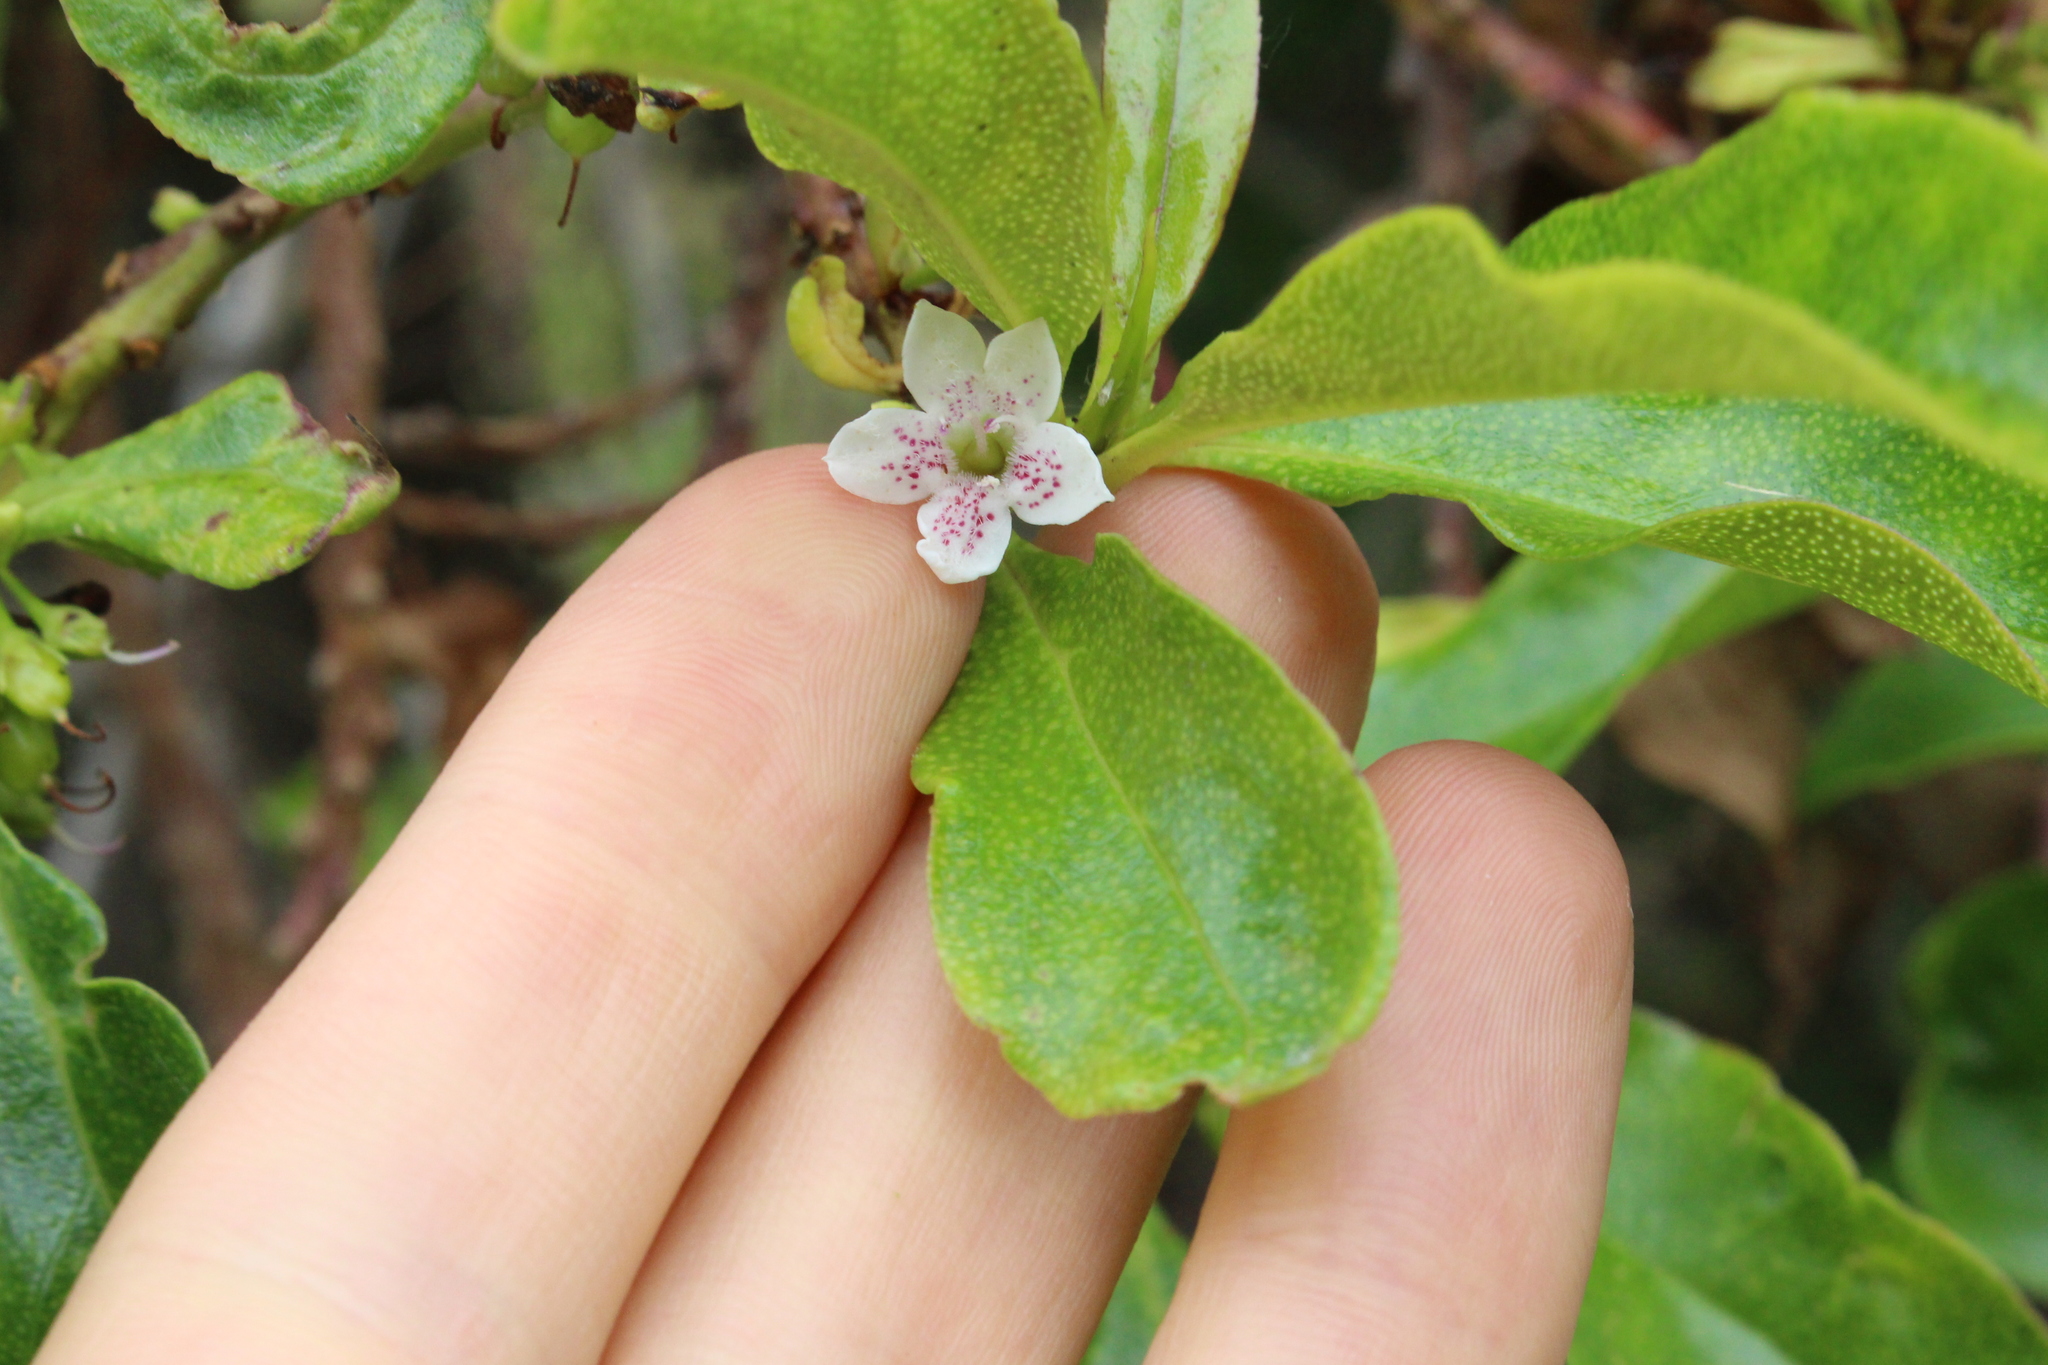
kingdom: Plantae
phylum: Tracheophyta
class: Magnoliopsida
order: Lamiales
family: Scrophulariaceae
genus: Myoporum
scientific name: Myoporum laetum
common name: Ngaio tree
